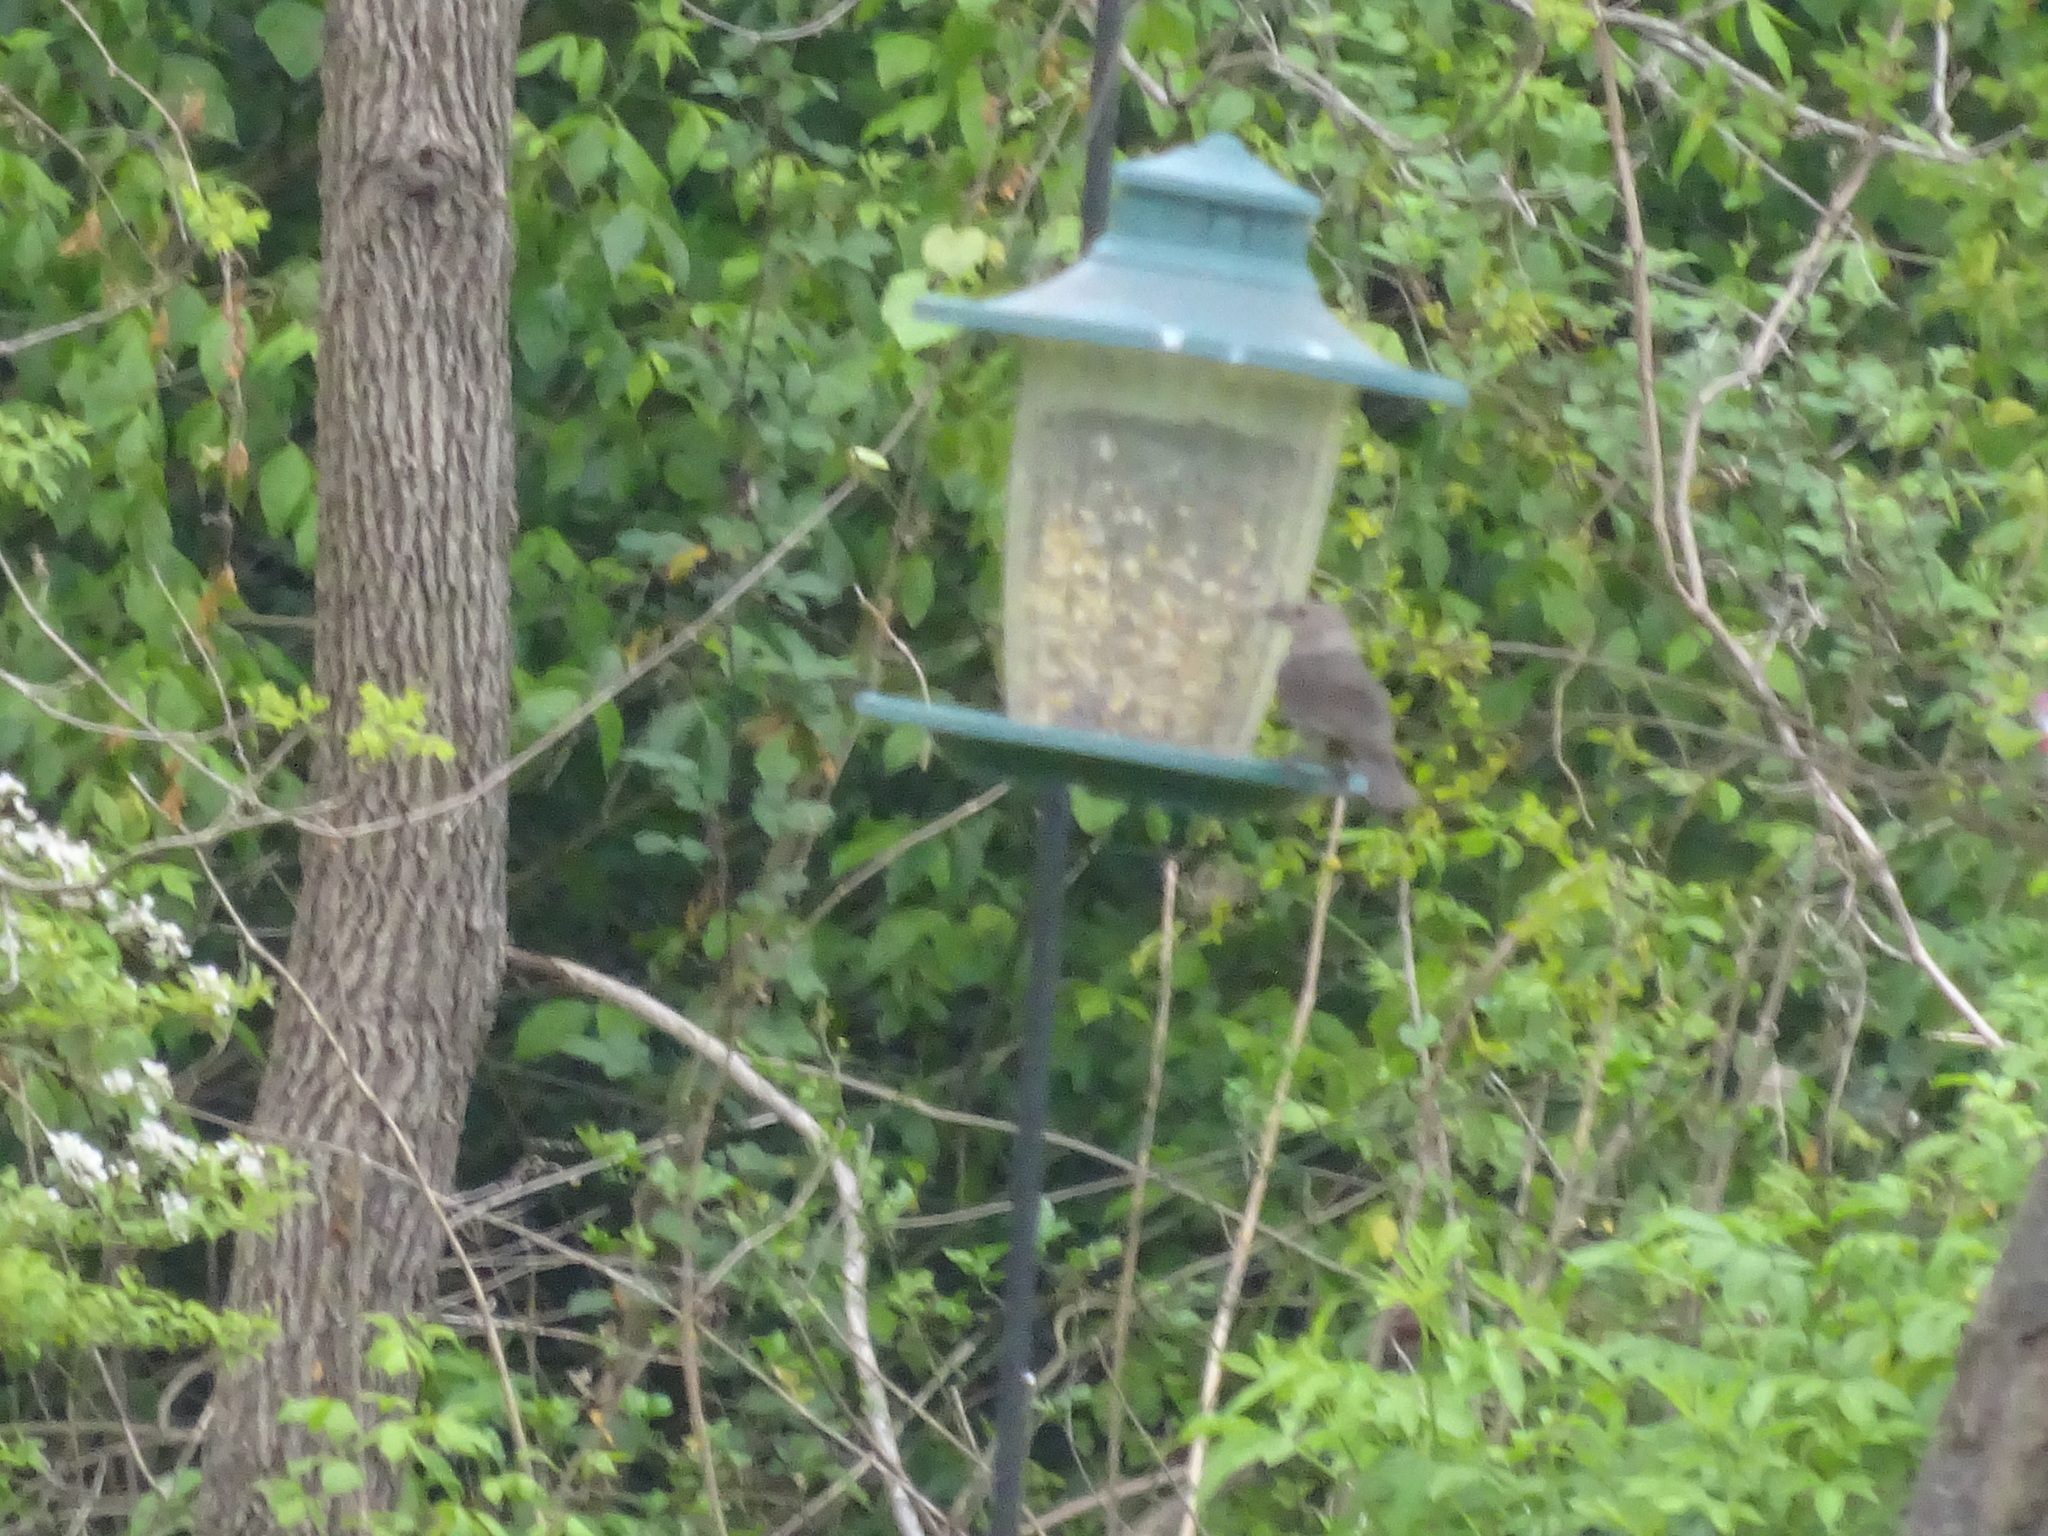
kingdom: Animalia
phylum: Chordata
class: Aves
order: Passeriformes
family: Icteridae
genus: Molothrus
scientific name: Molothrus ater
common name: Brown-headed cowbird
